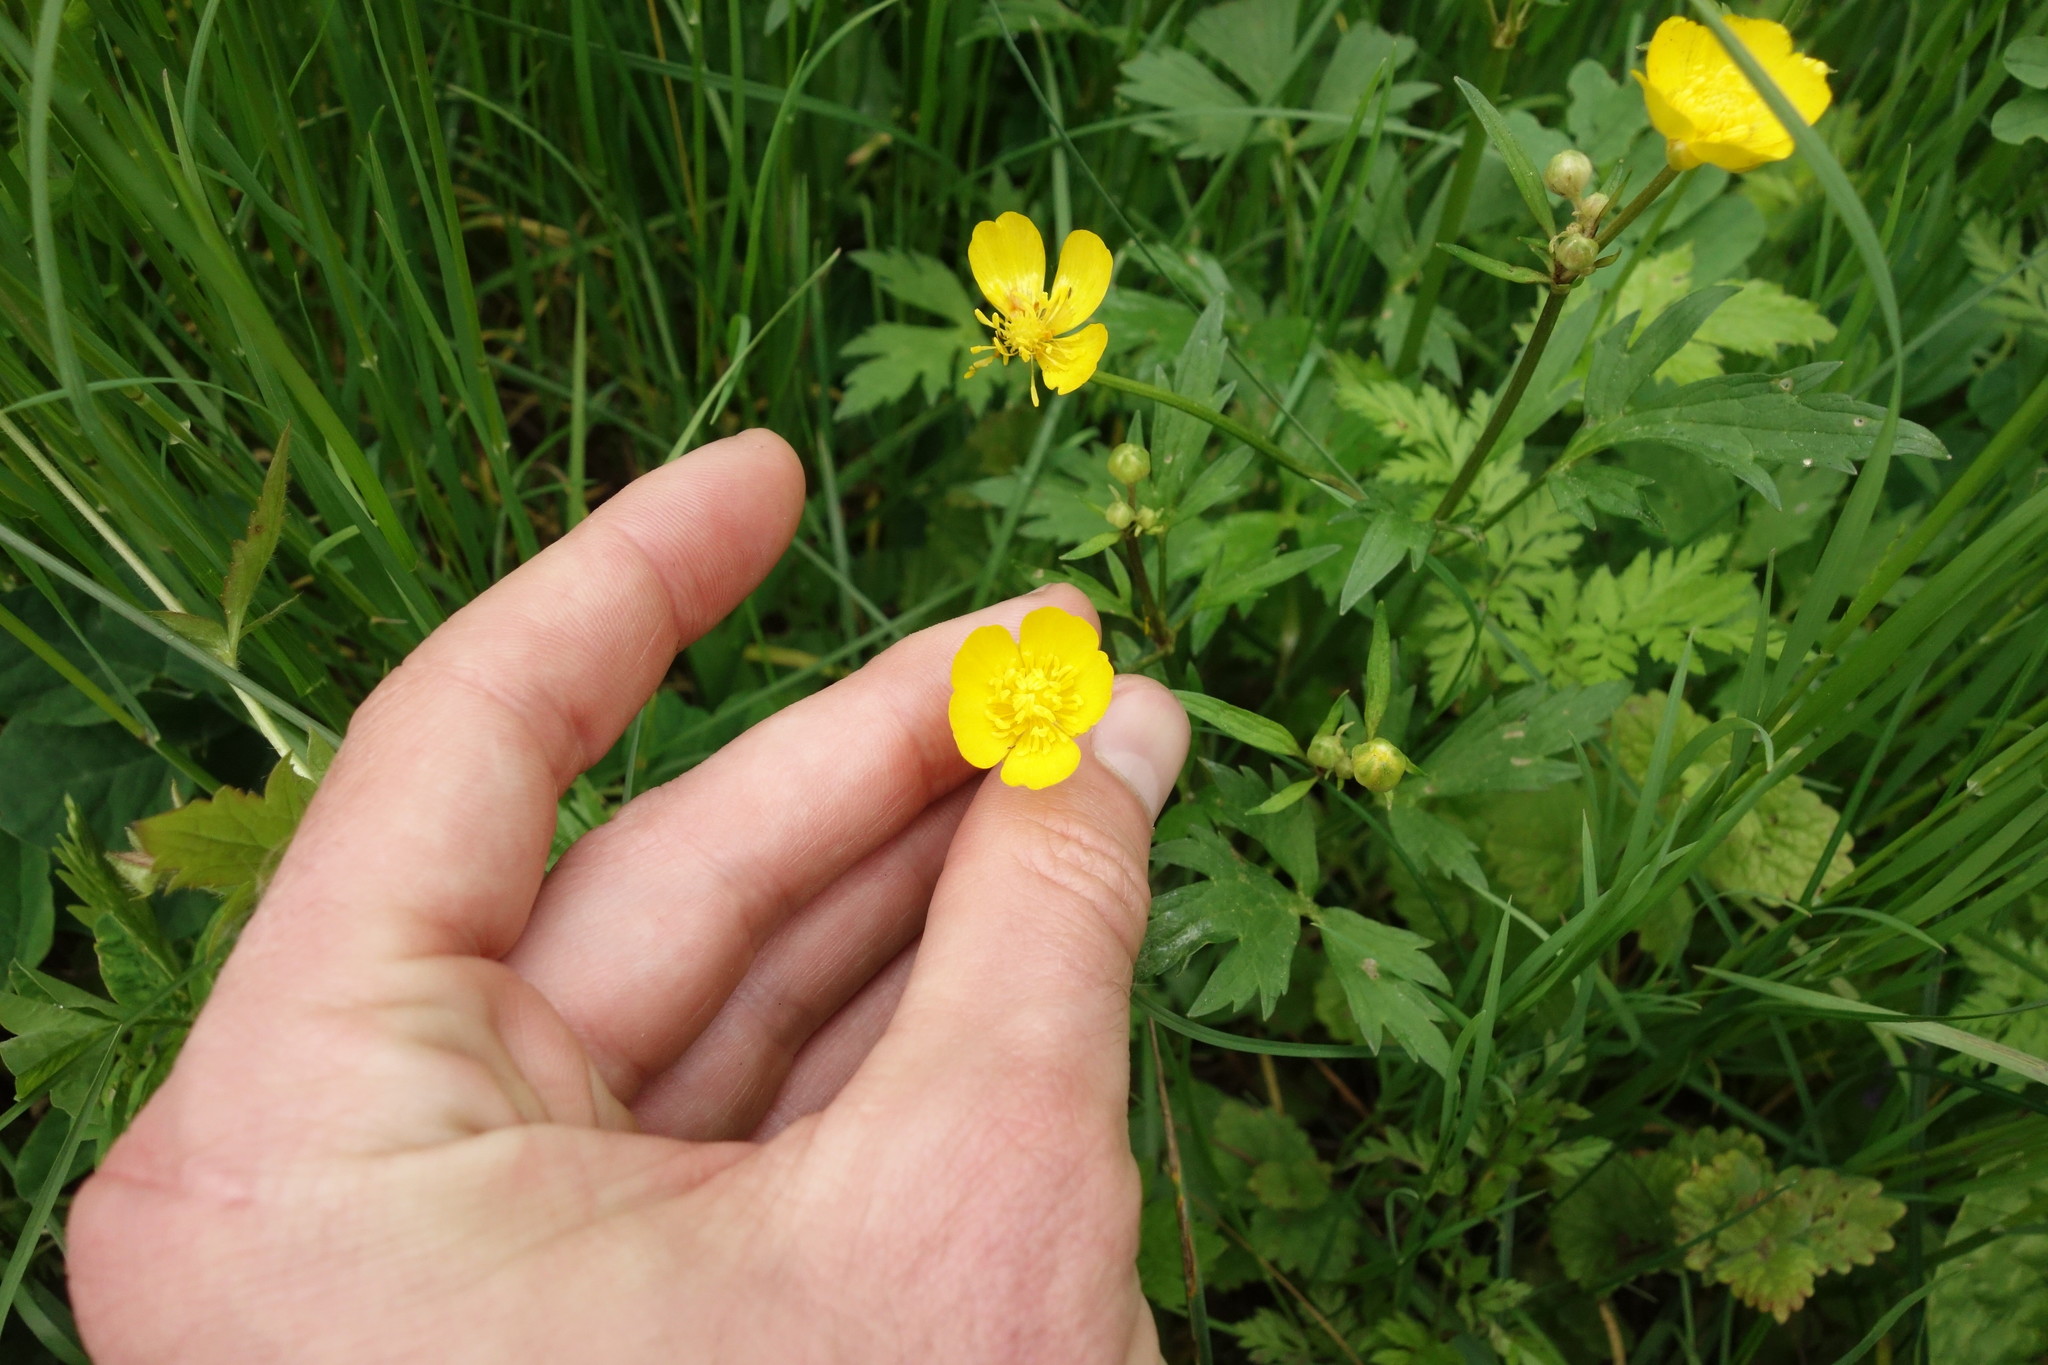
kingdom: Plantae
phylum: Tracheophyta
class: Magnoliopsida
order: Ranunculales
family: Ranunculaceae
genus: Ranunculus
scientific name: Ranunculus repens
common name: Creeping buttercup
